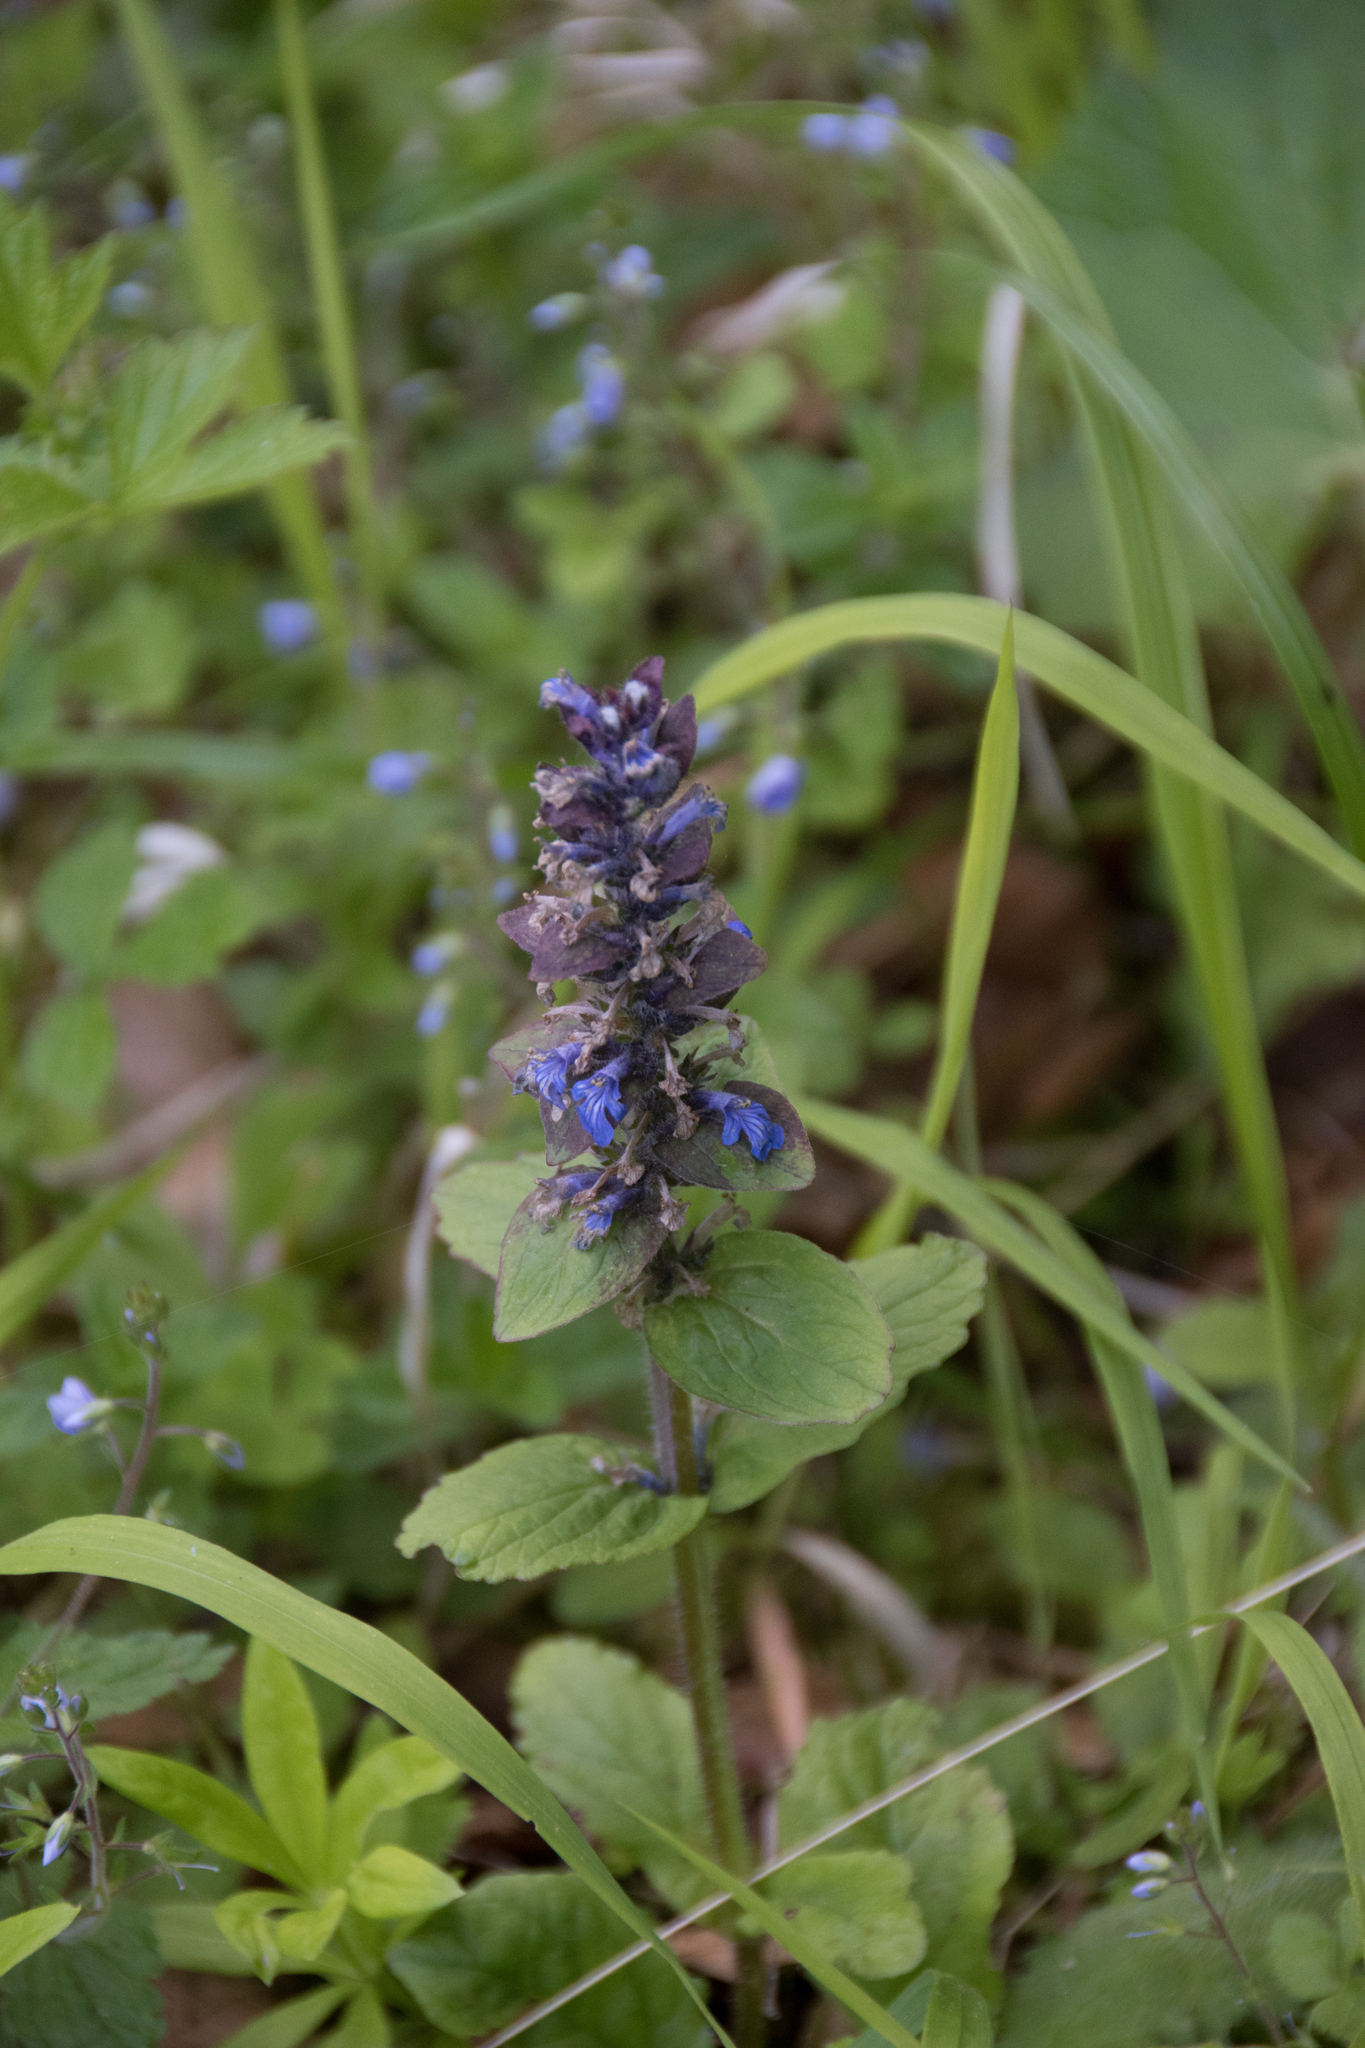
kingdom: Plantae
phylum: Tracheophyta
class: Magnoliopsida
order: Lamiales
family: Lamiaceae
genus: Ajuga
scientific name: Ajuga reptans
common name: Bugle
